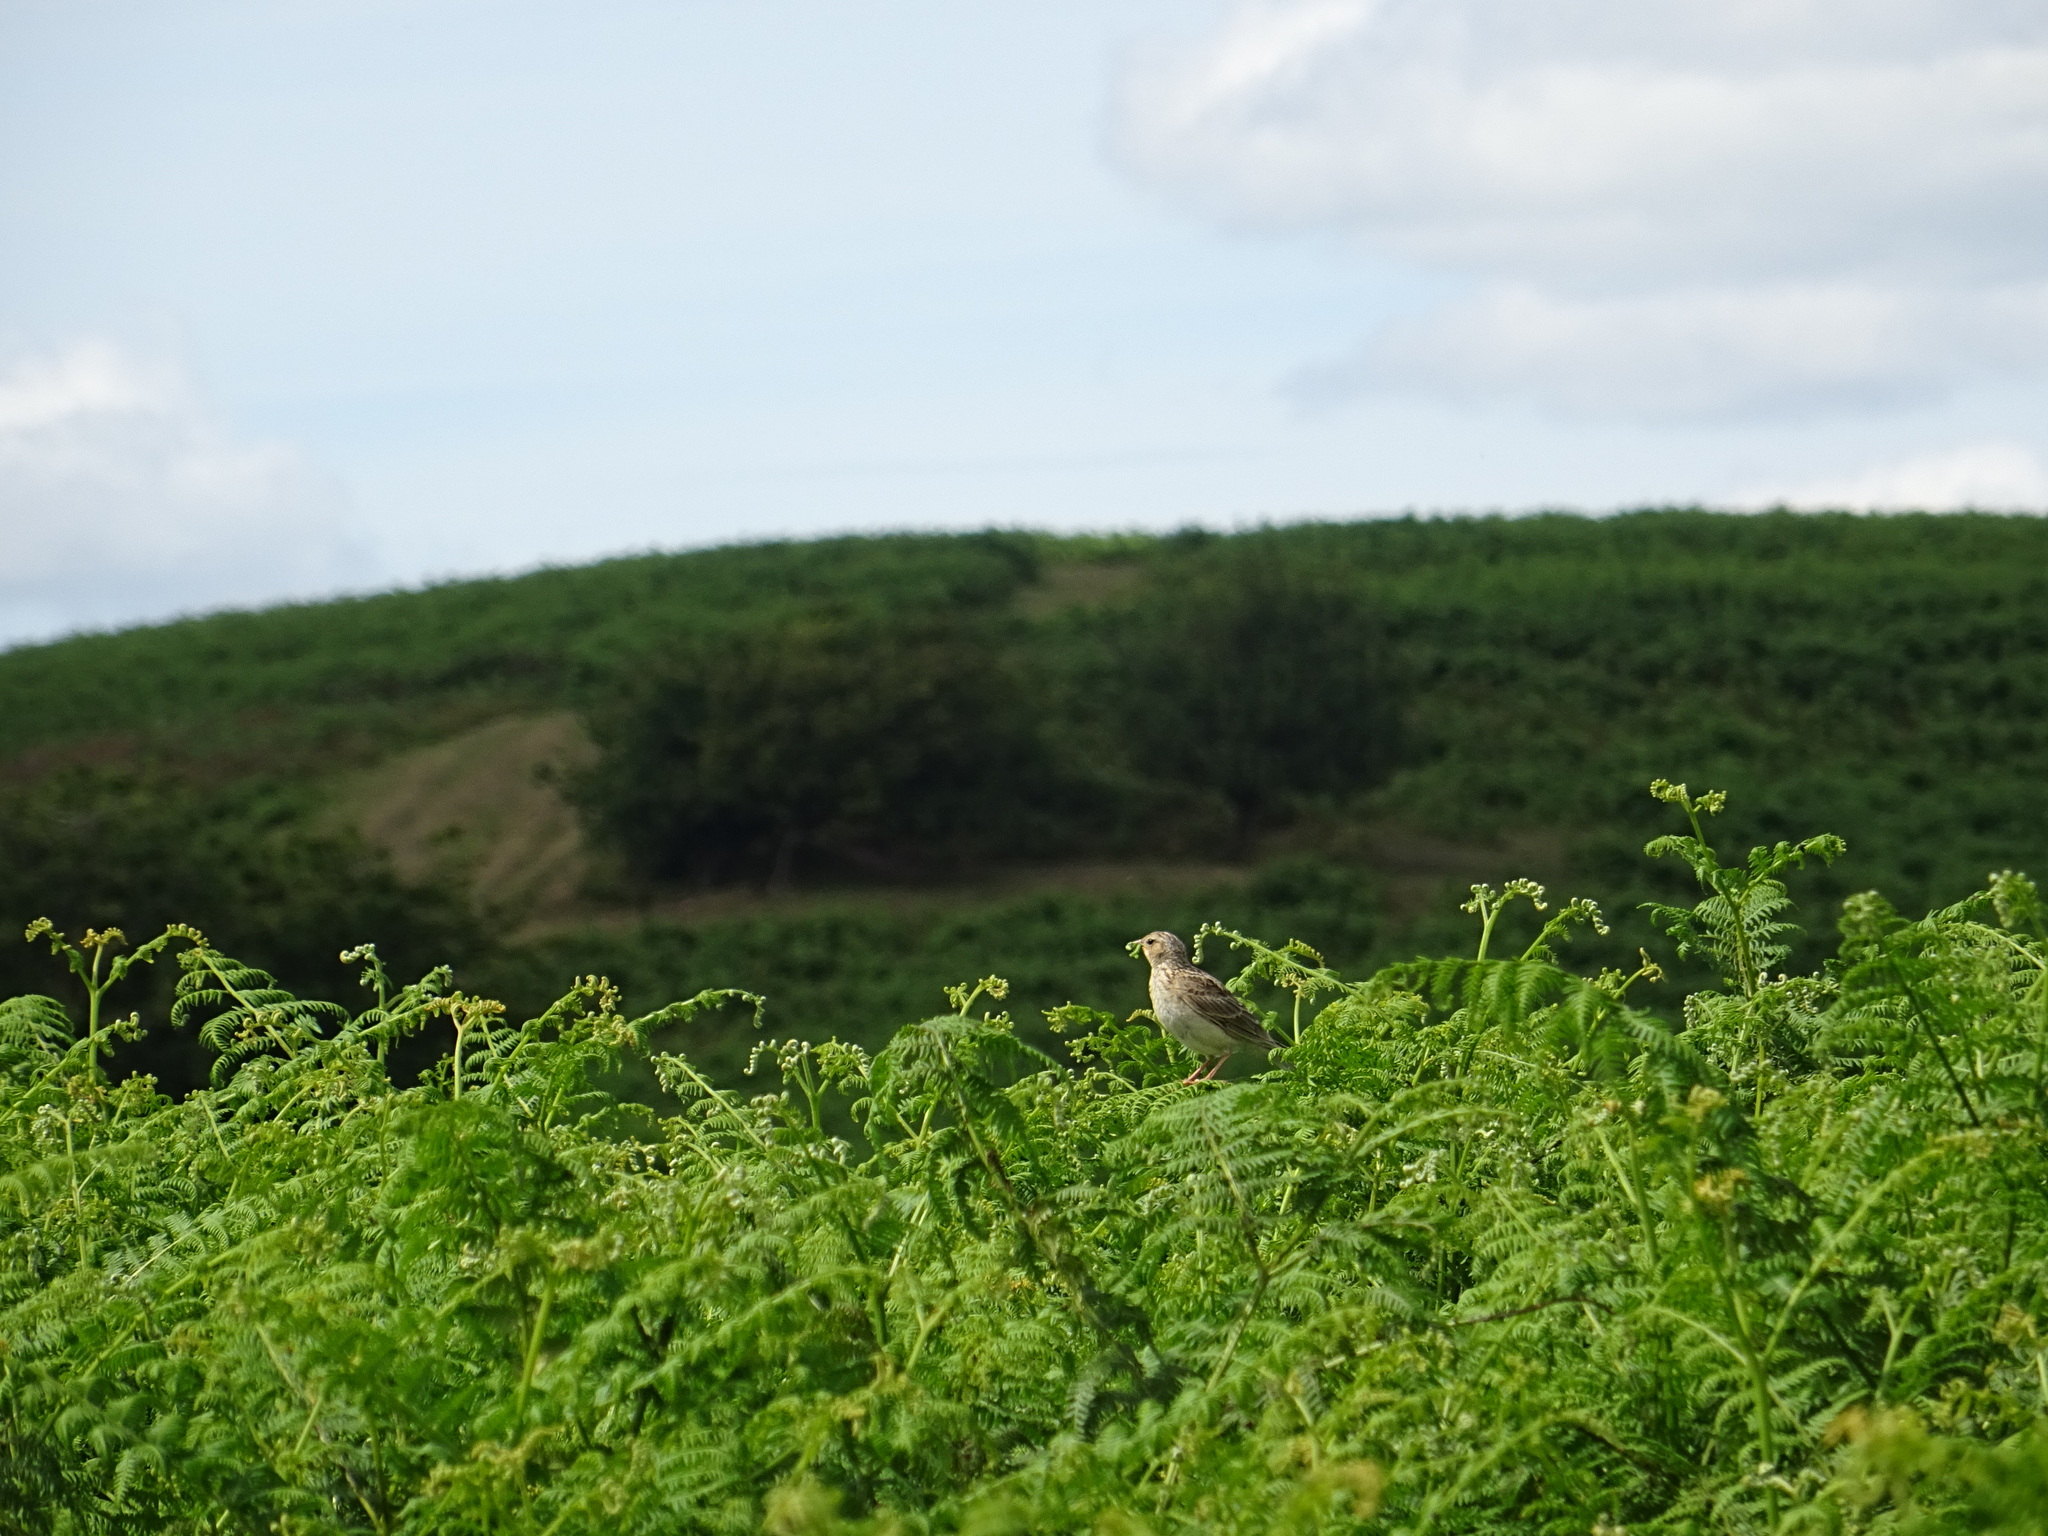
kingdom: Animalia
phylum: Chordata
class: Aves
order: Passeriformes
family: Alaudidae
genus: Alauda
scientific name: Alauda arvensis
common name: Eurasian skylark
